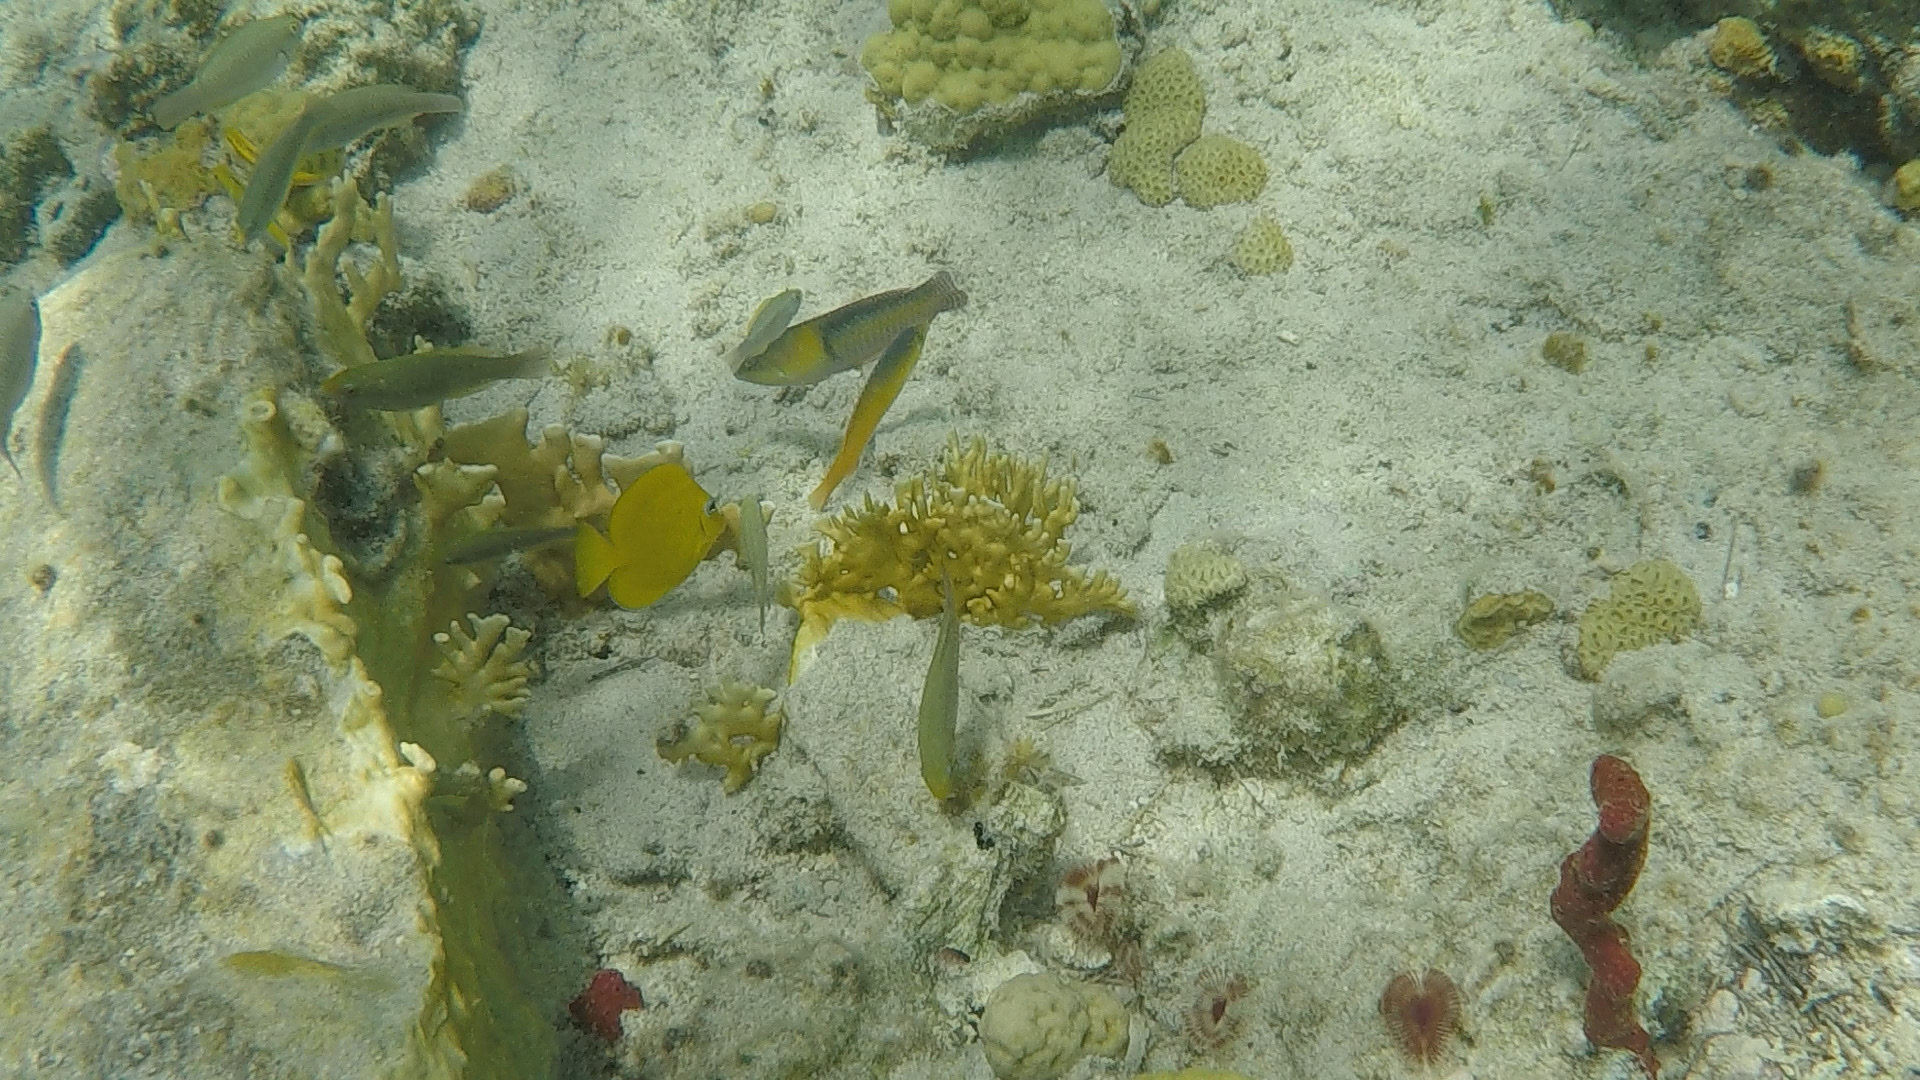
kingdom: Animalia
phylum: Chordata
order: Perciformes
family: Labridae
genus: Halichoeres
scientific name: Halichoeres garnoti
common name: Yellowhead wrasse
